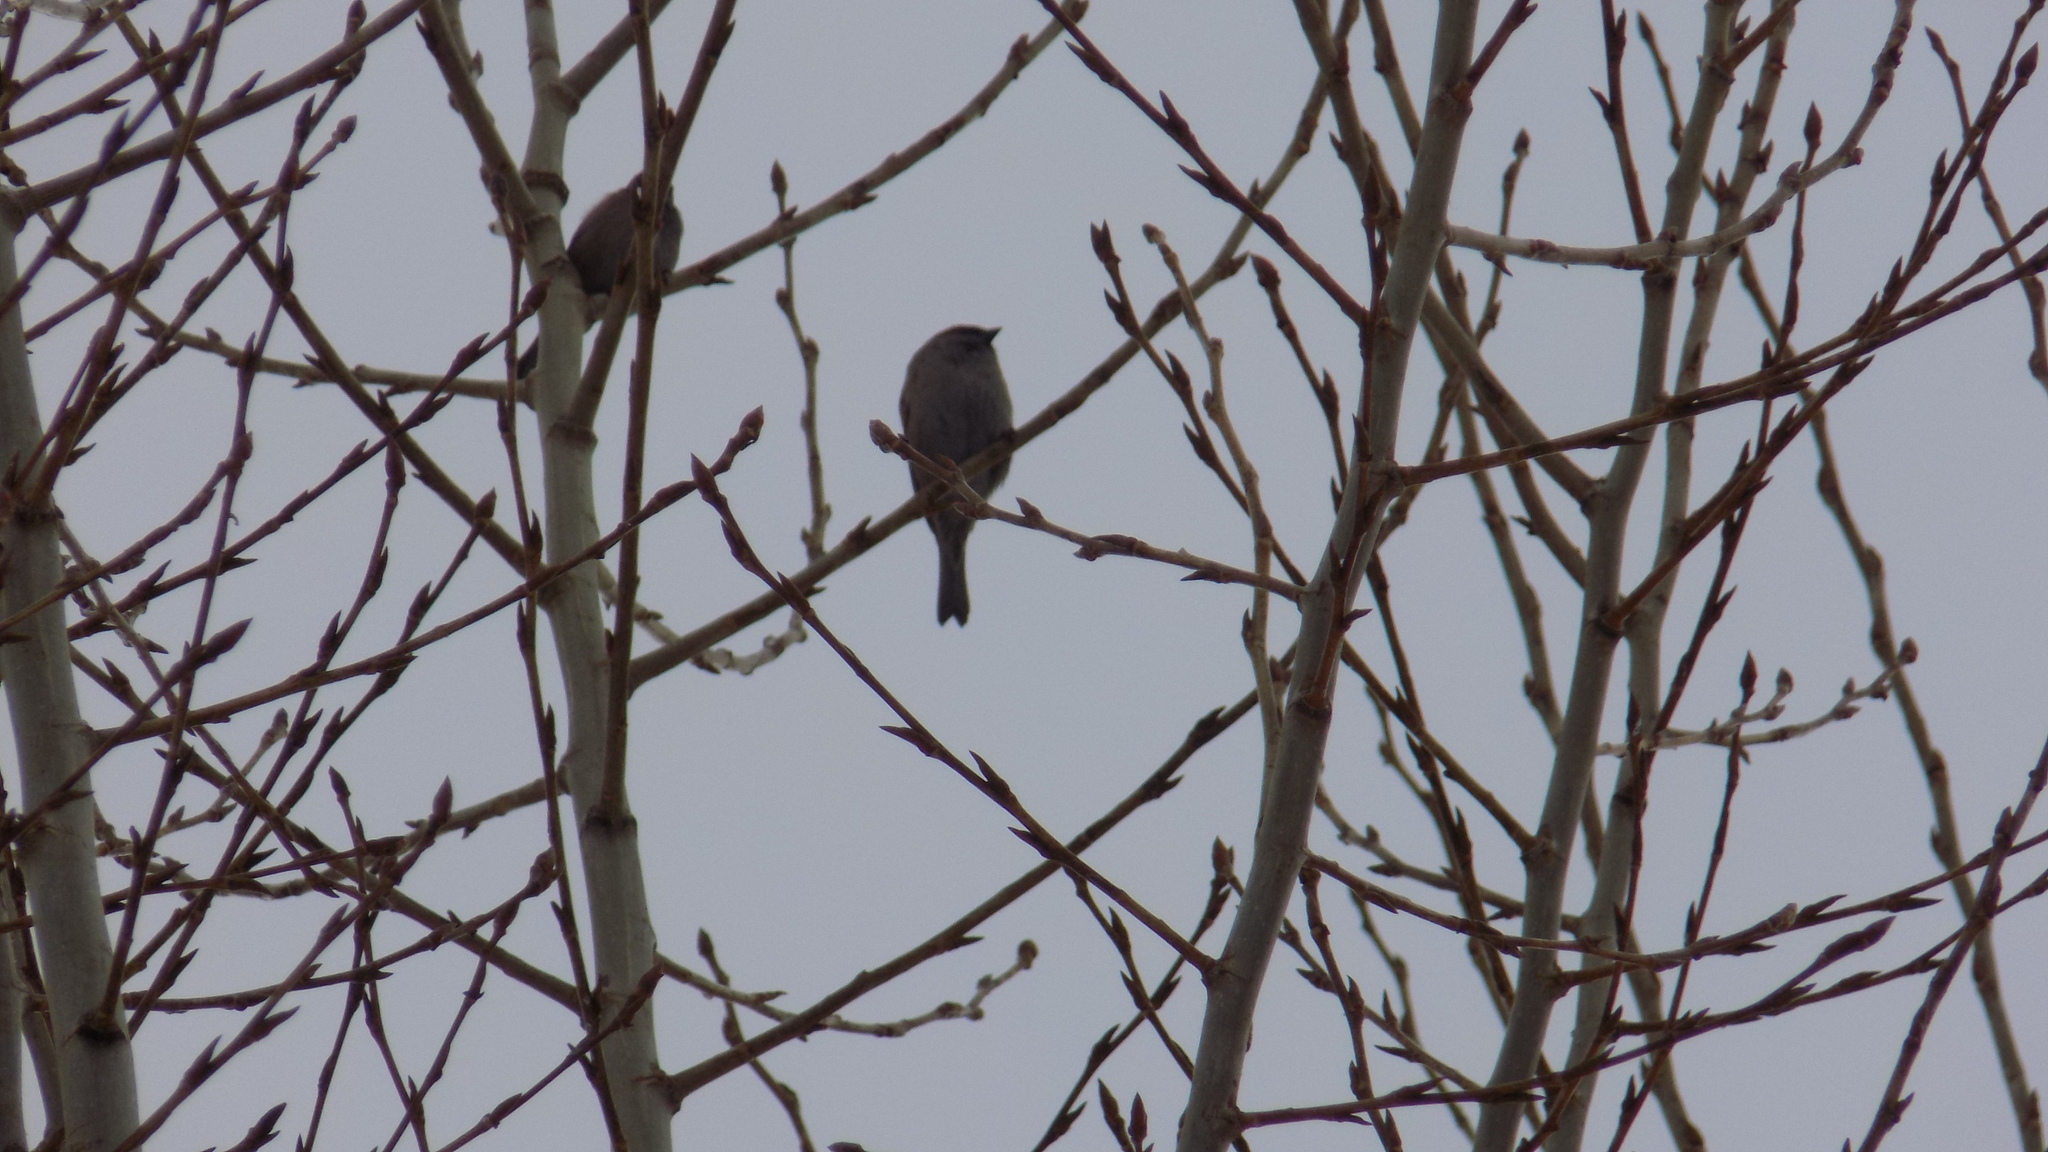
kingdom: Animalia
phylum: Chordata
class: Aves
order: Passeriformes
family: Passeridae
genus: Passer
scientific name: Passer montanus
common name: Eurasian tree sparrow
